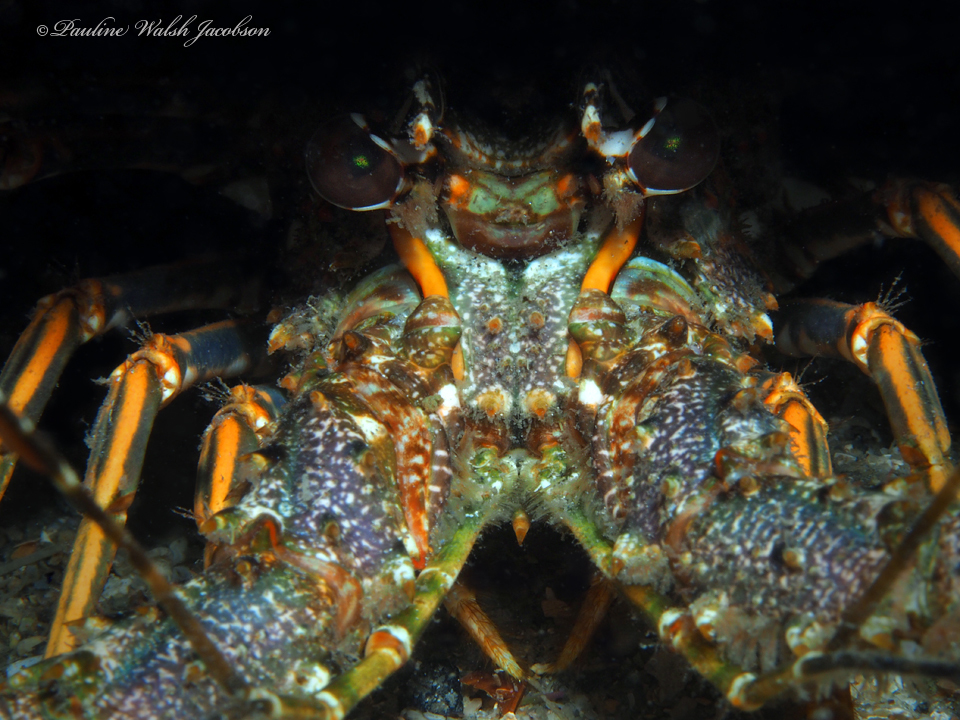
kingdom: Animalia
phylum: Arthropoda
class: Malacostraca
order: Decapoda
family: Palinuridae
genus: Panulirus
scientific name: Panulirus argus
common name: Caribbean spiny lobster
